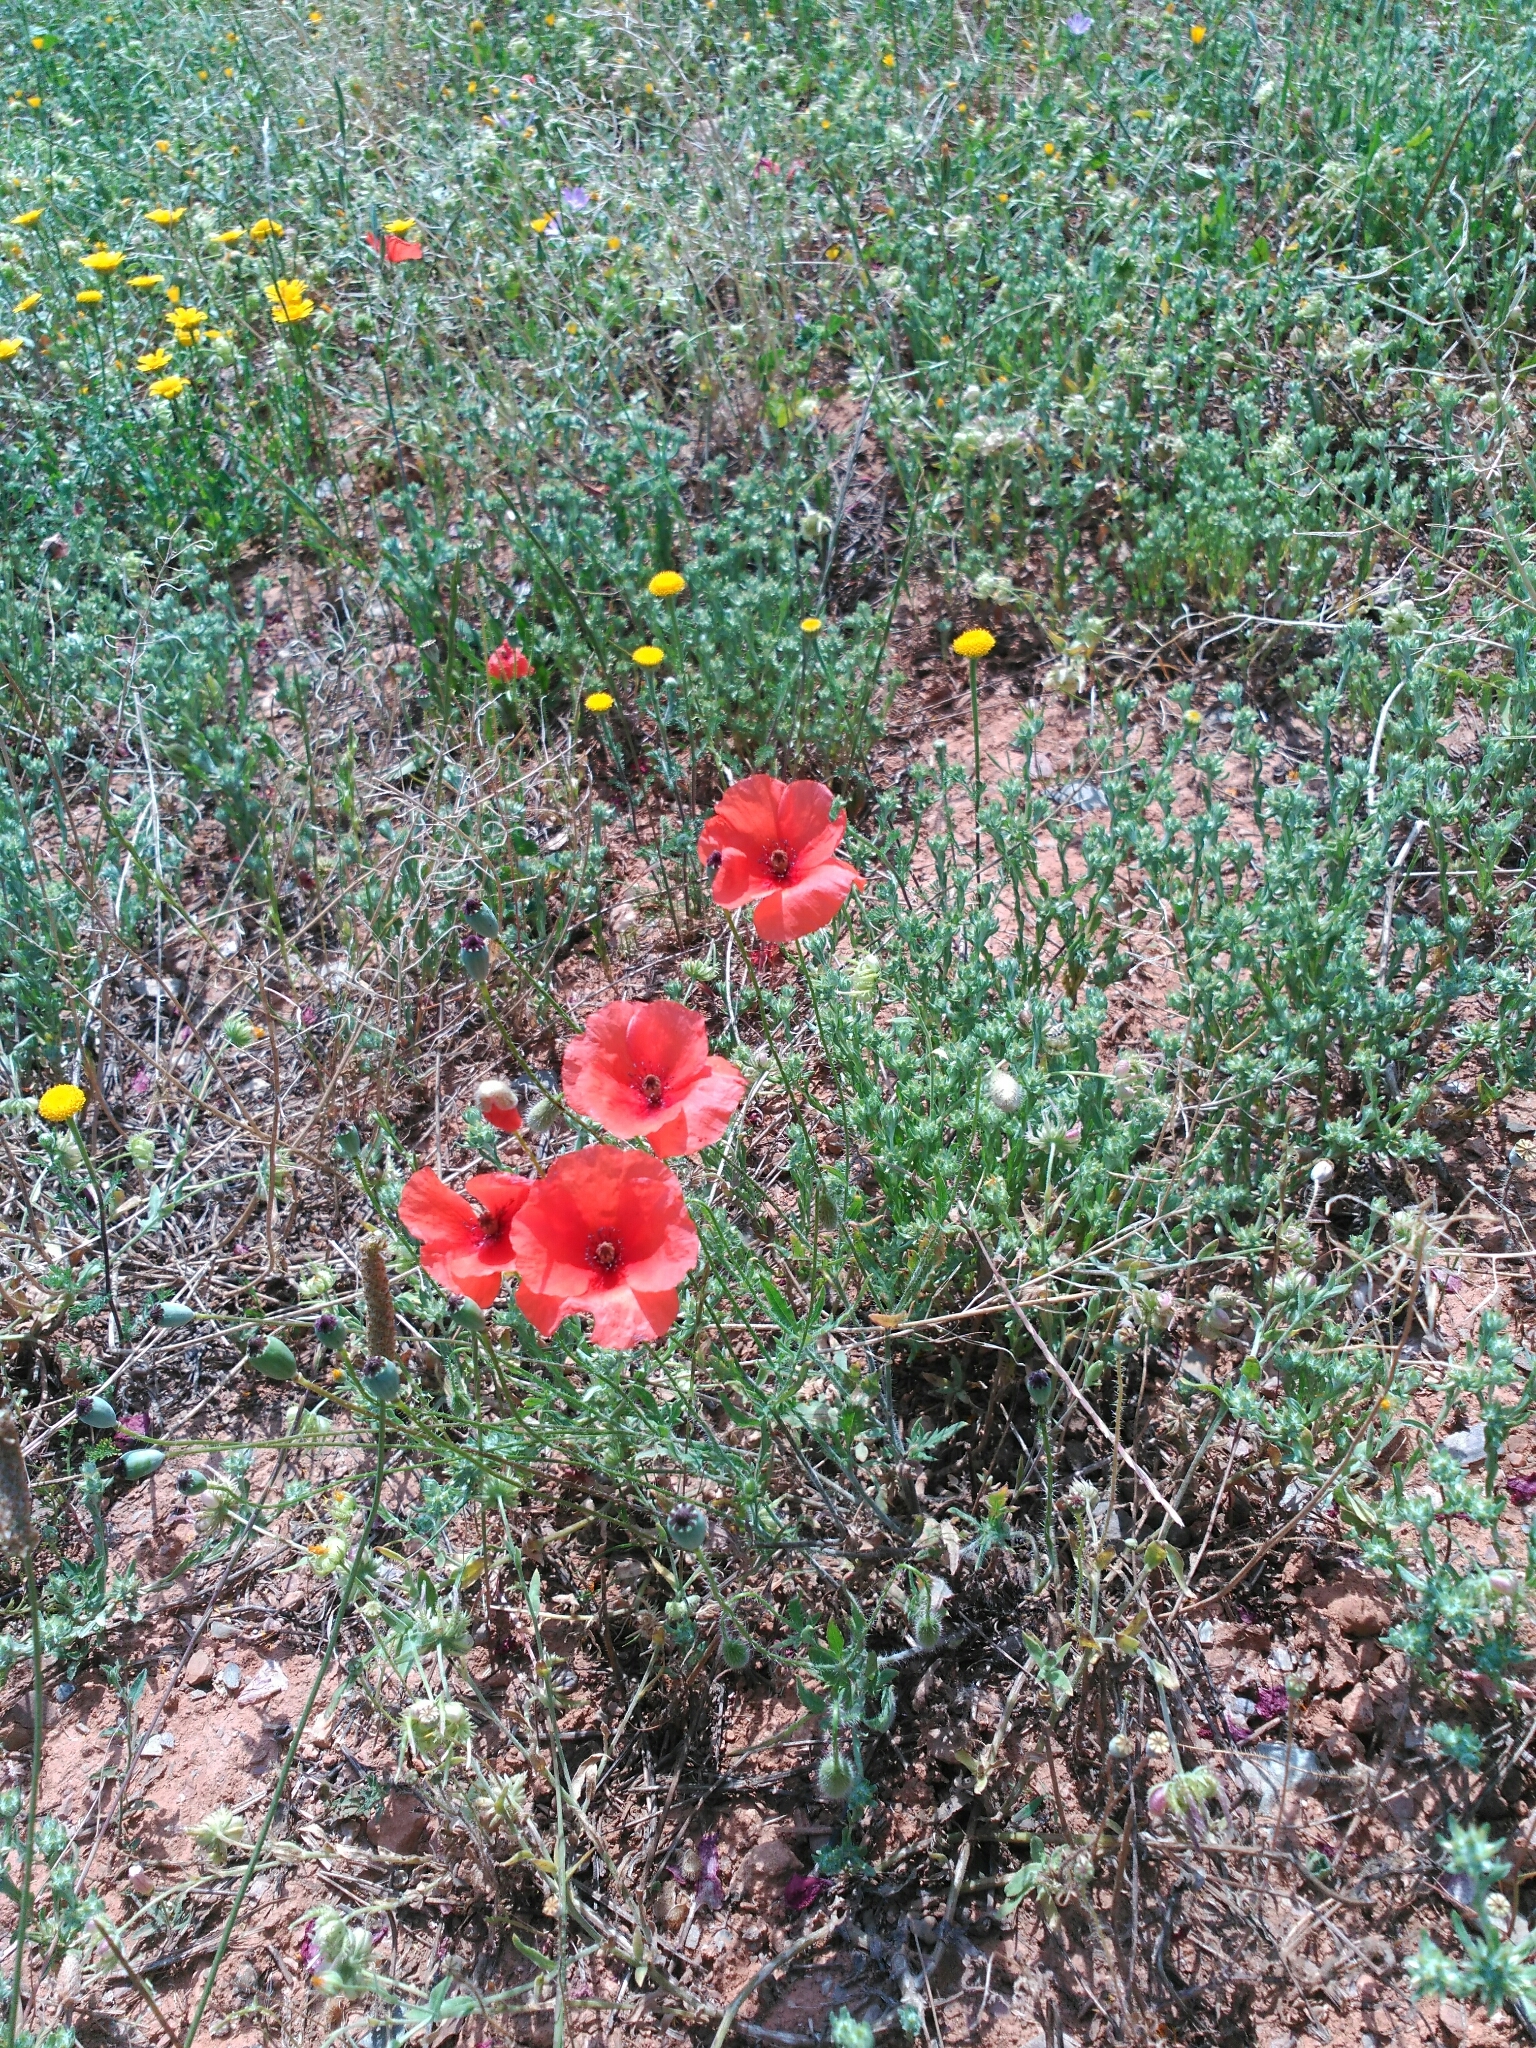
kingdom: Plantae
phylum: Tracheophyta
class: Magnoliopsida
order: Ranunculales
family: Papaveraceae
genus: Papaver
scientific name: Papaver rhoeas
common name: Corn poppy
